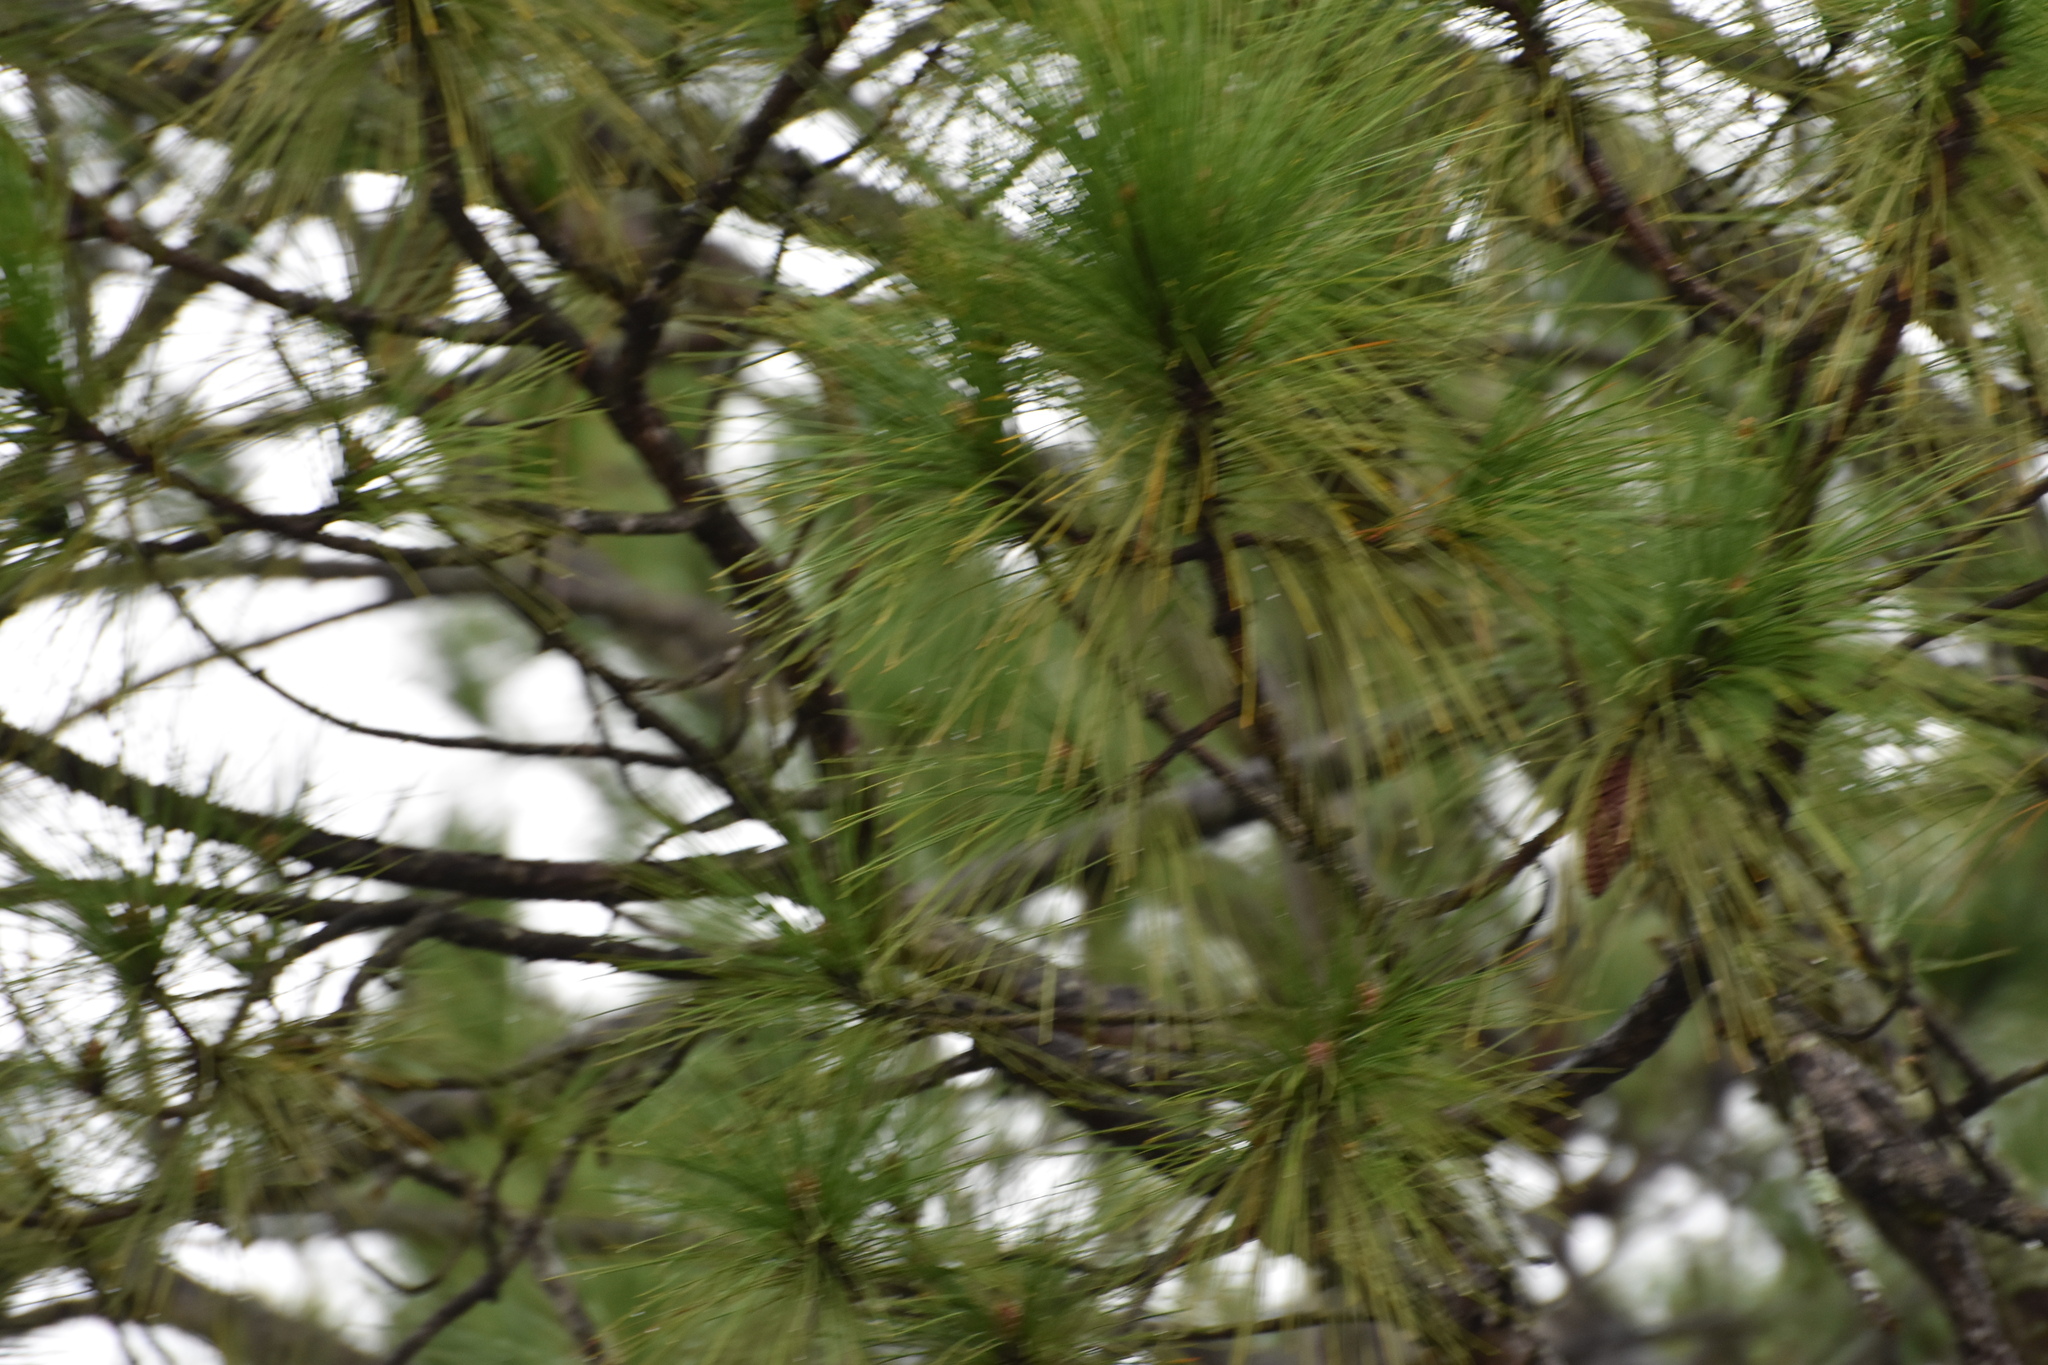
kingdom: Plantae
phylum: Tracheophyta
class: Pinopsida
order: Pinales
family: Pinaceae
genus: Pinus
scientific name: Pinus elliottii
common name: Slash pine
